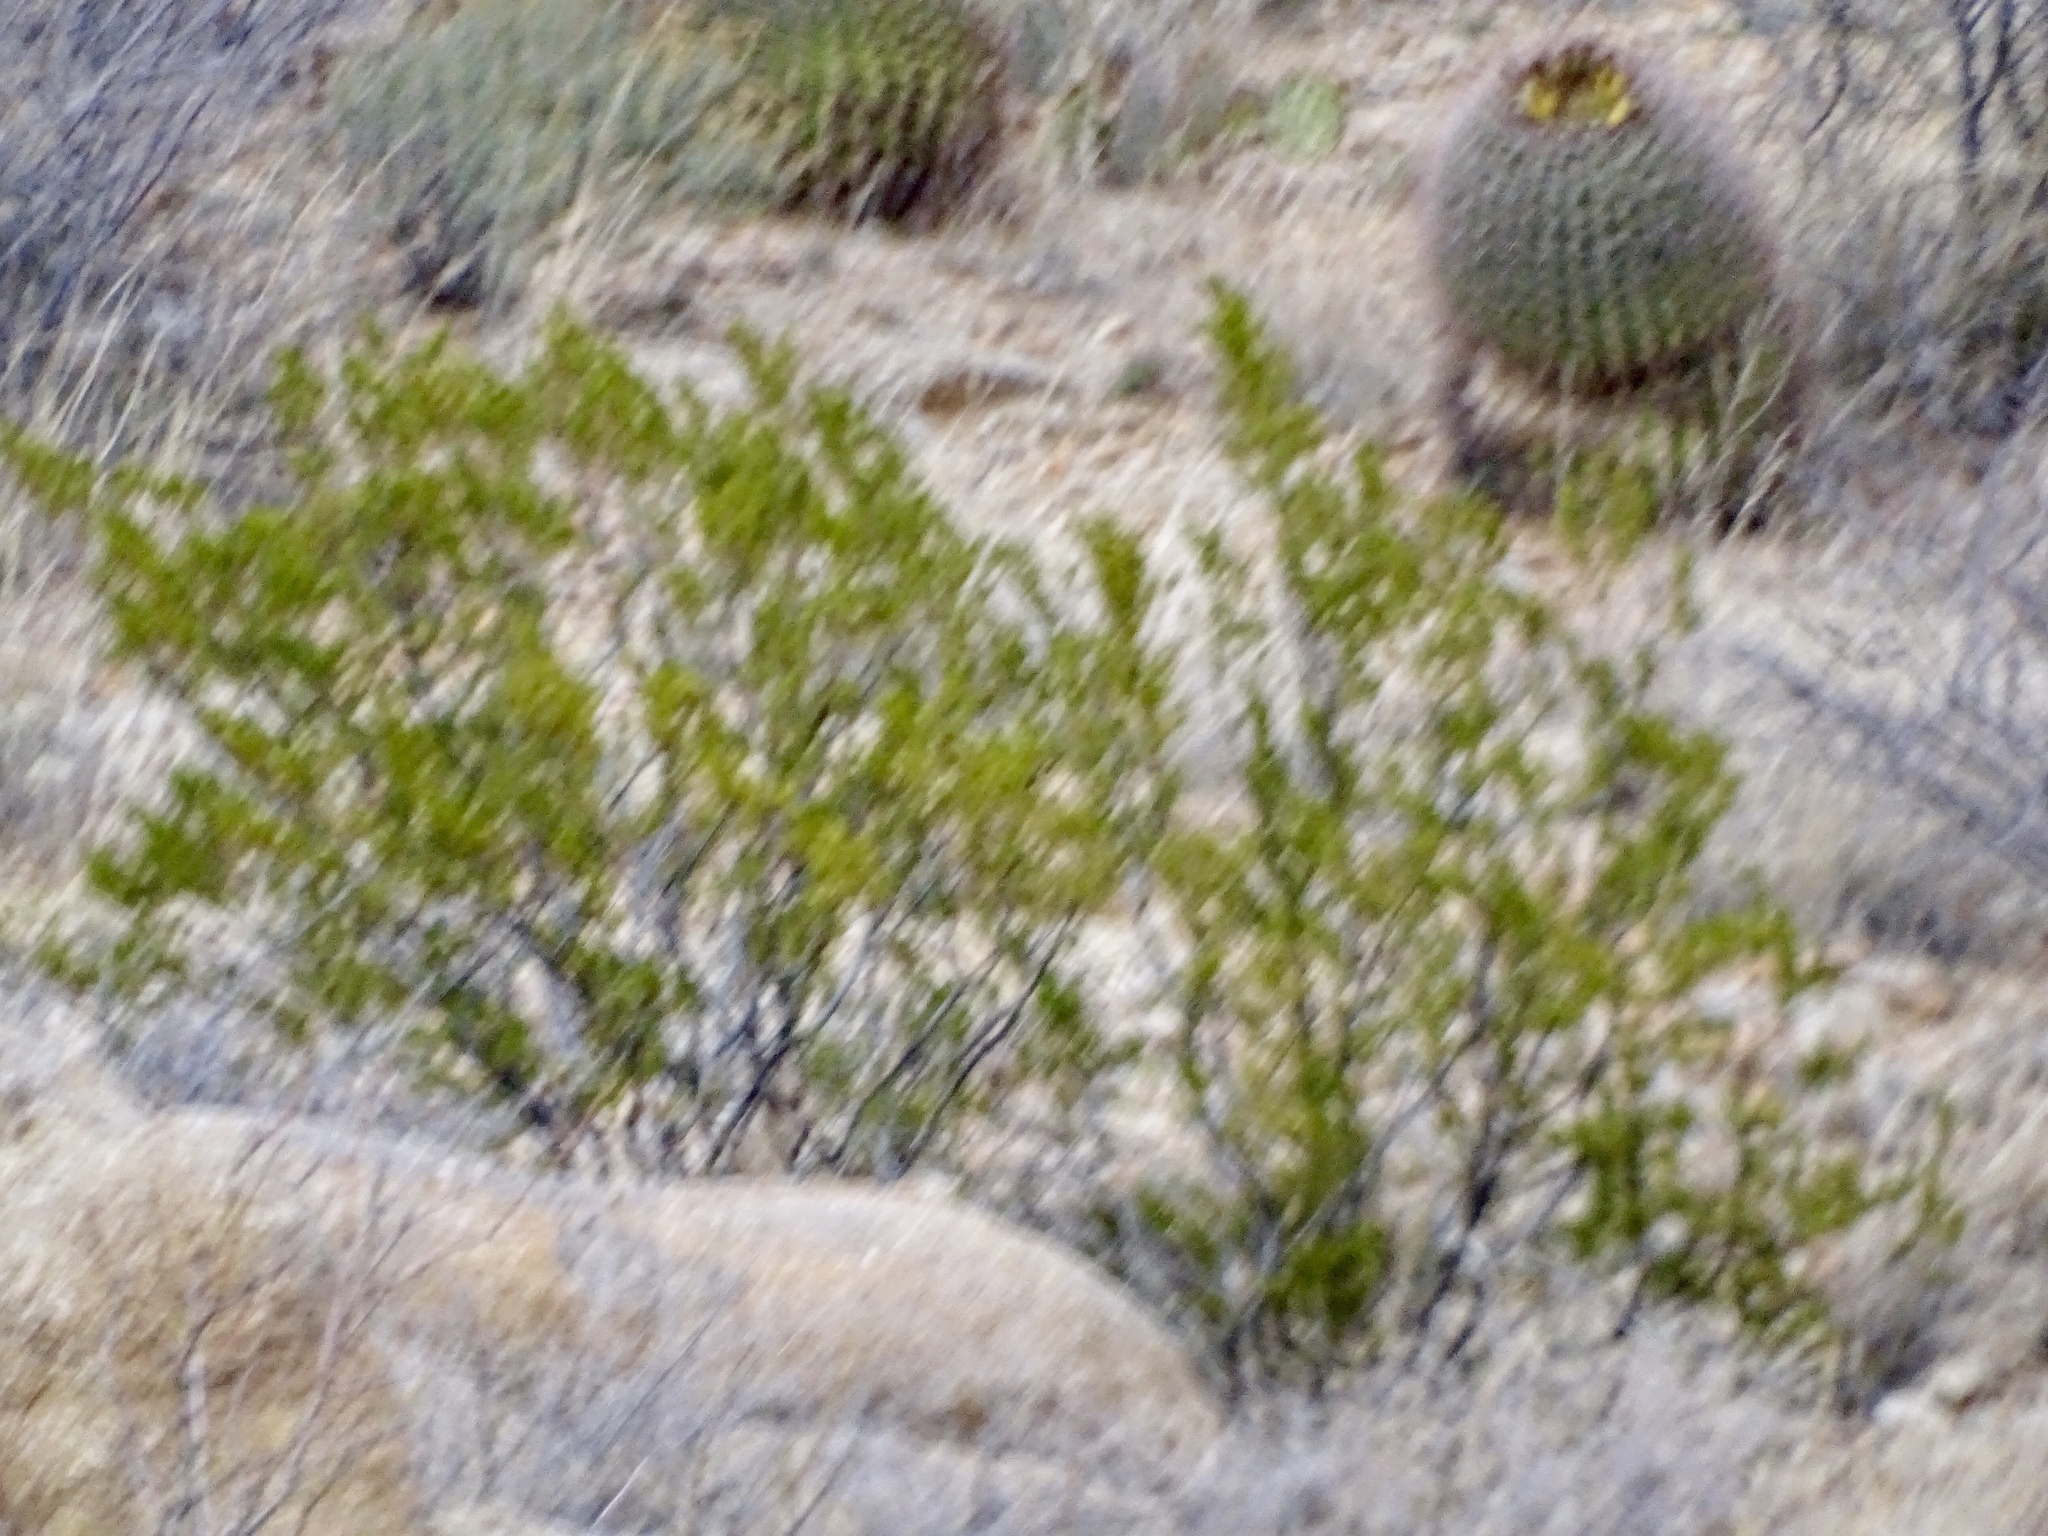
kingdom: Plantae
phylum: Tracheophyta
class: Magnoliopsida
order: Zygophyllales
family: Zygophyllaceae
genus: Larrea
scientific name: Larrea tridentata
